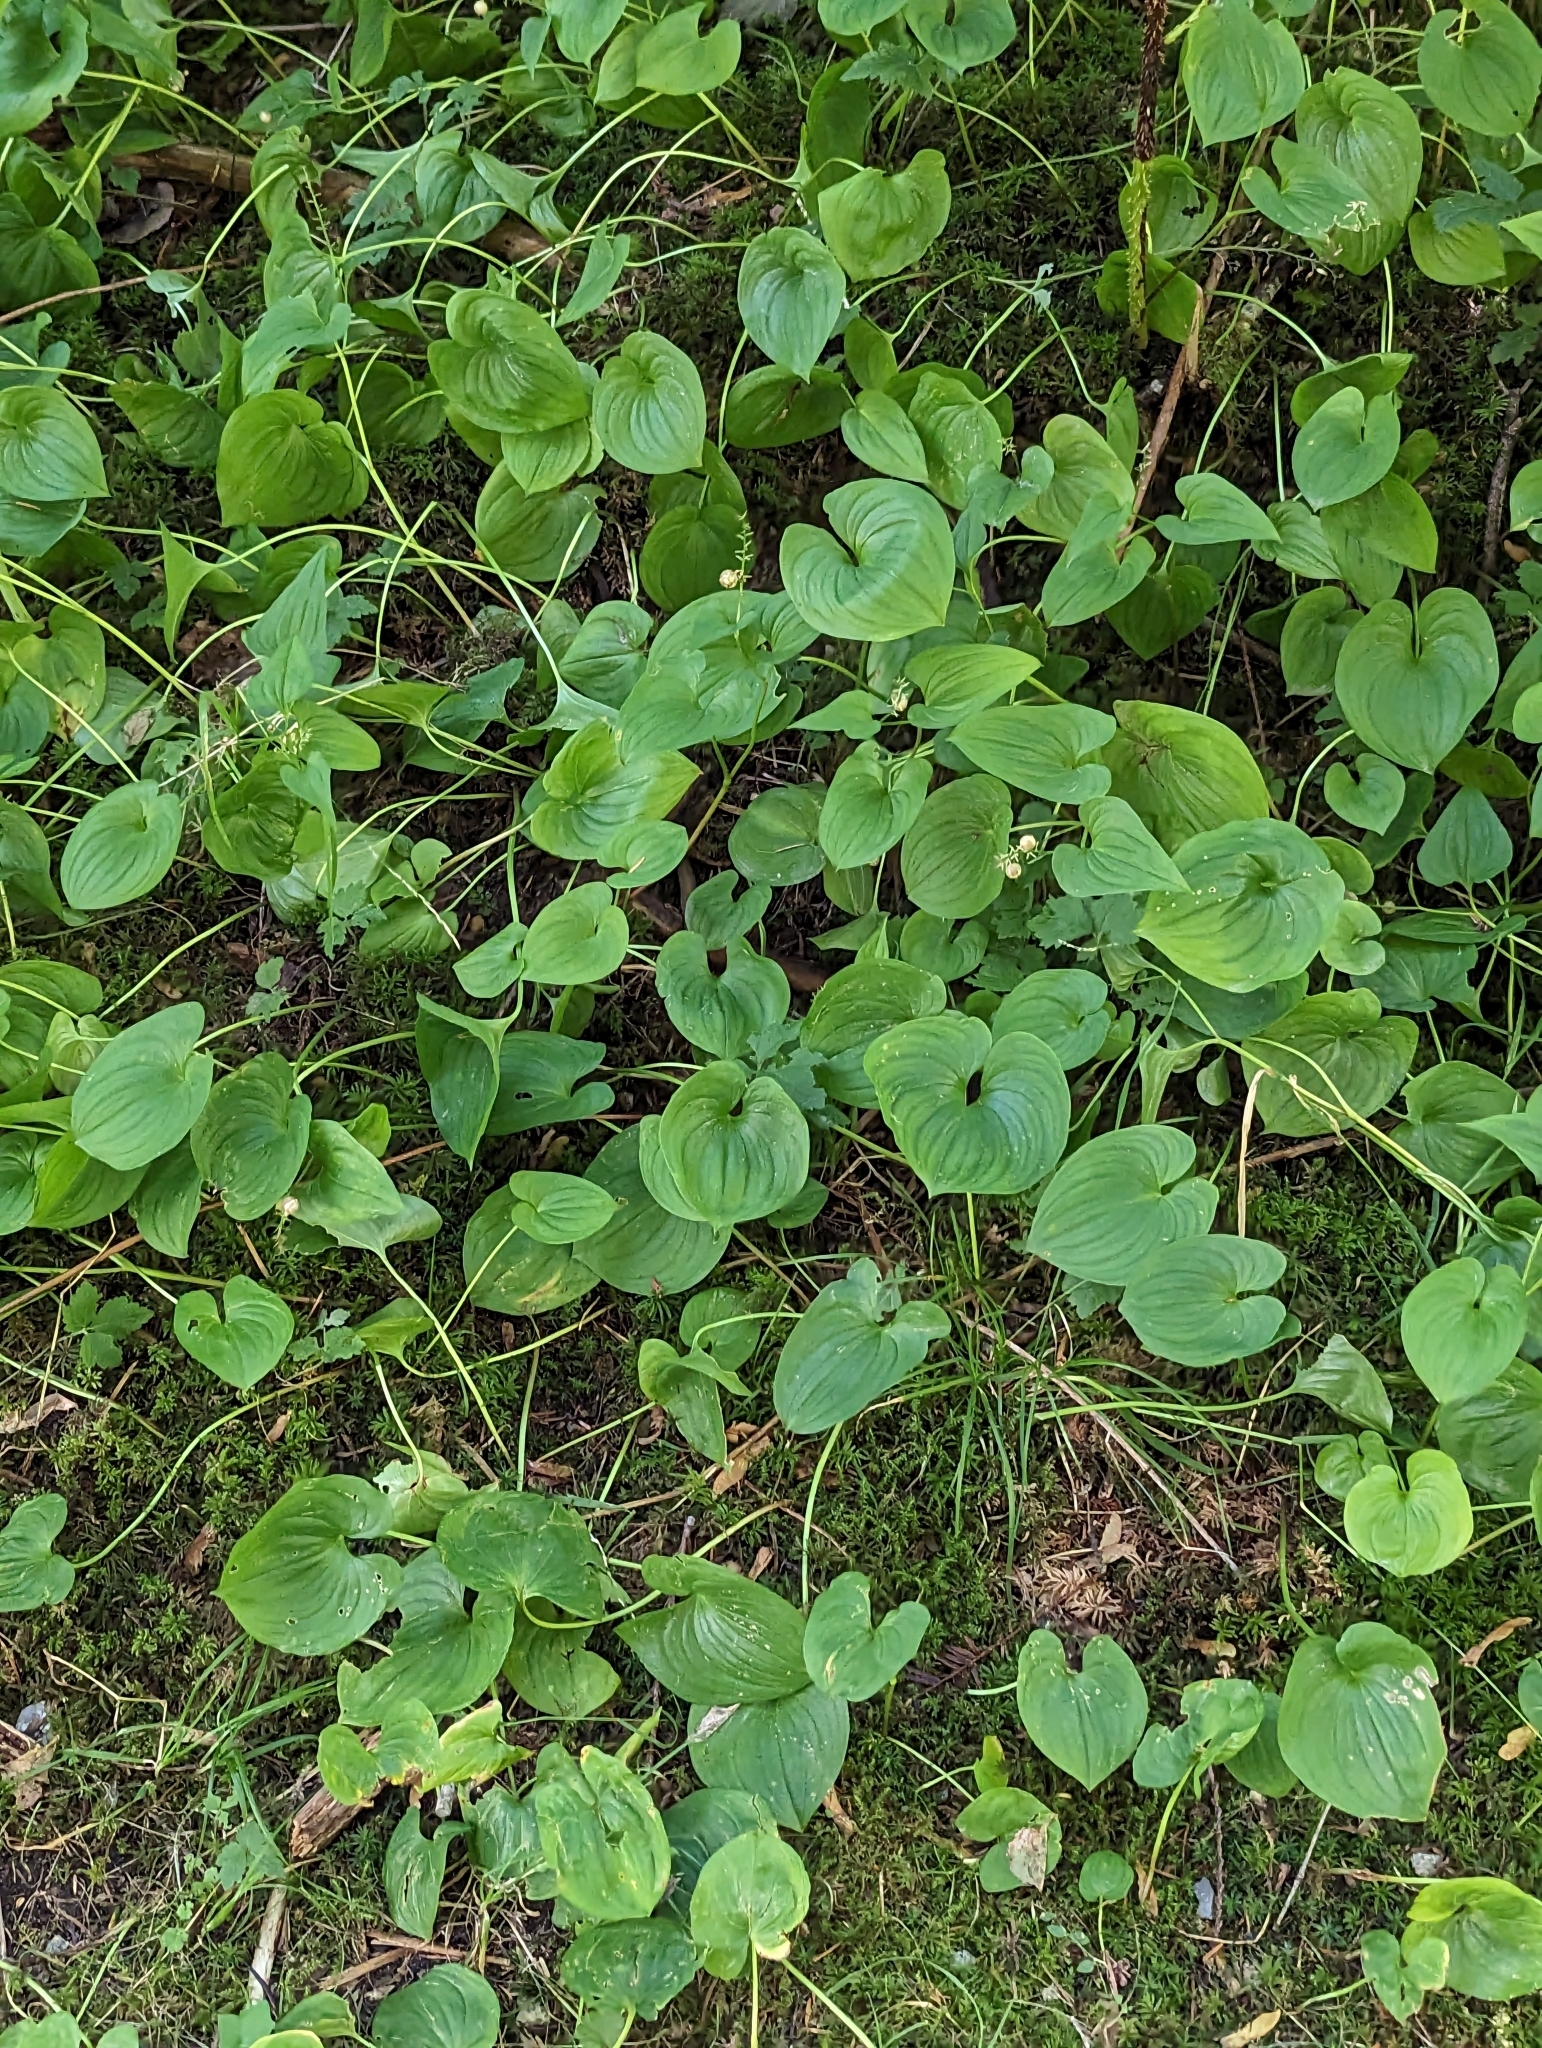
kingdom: Plantae
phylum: Tracheophyta
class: Liliopsida
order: Asparagales
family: Asparagaceae
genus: Maianthemum
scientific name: Maianthemum dilatatum
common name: False lily-of-the-valley
